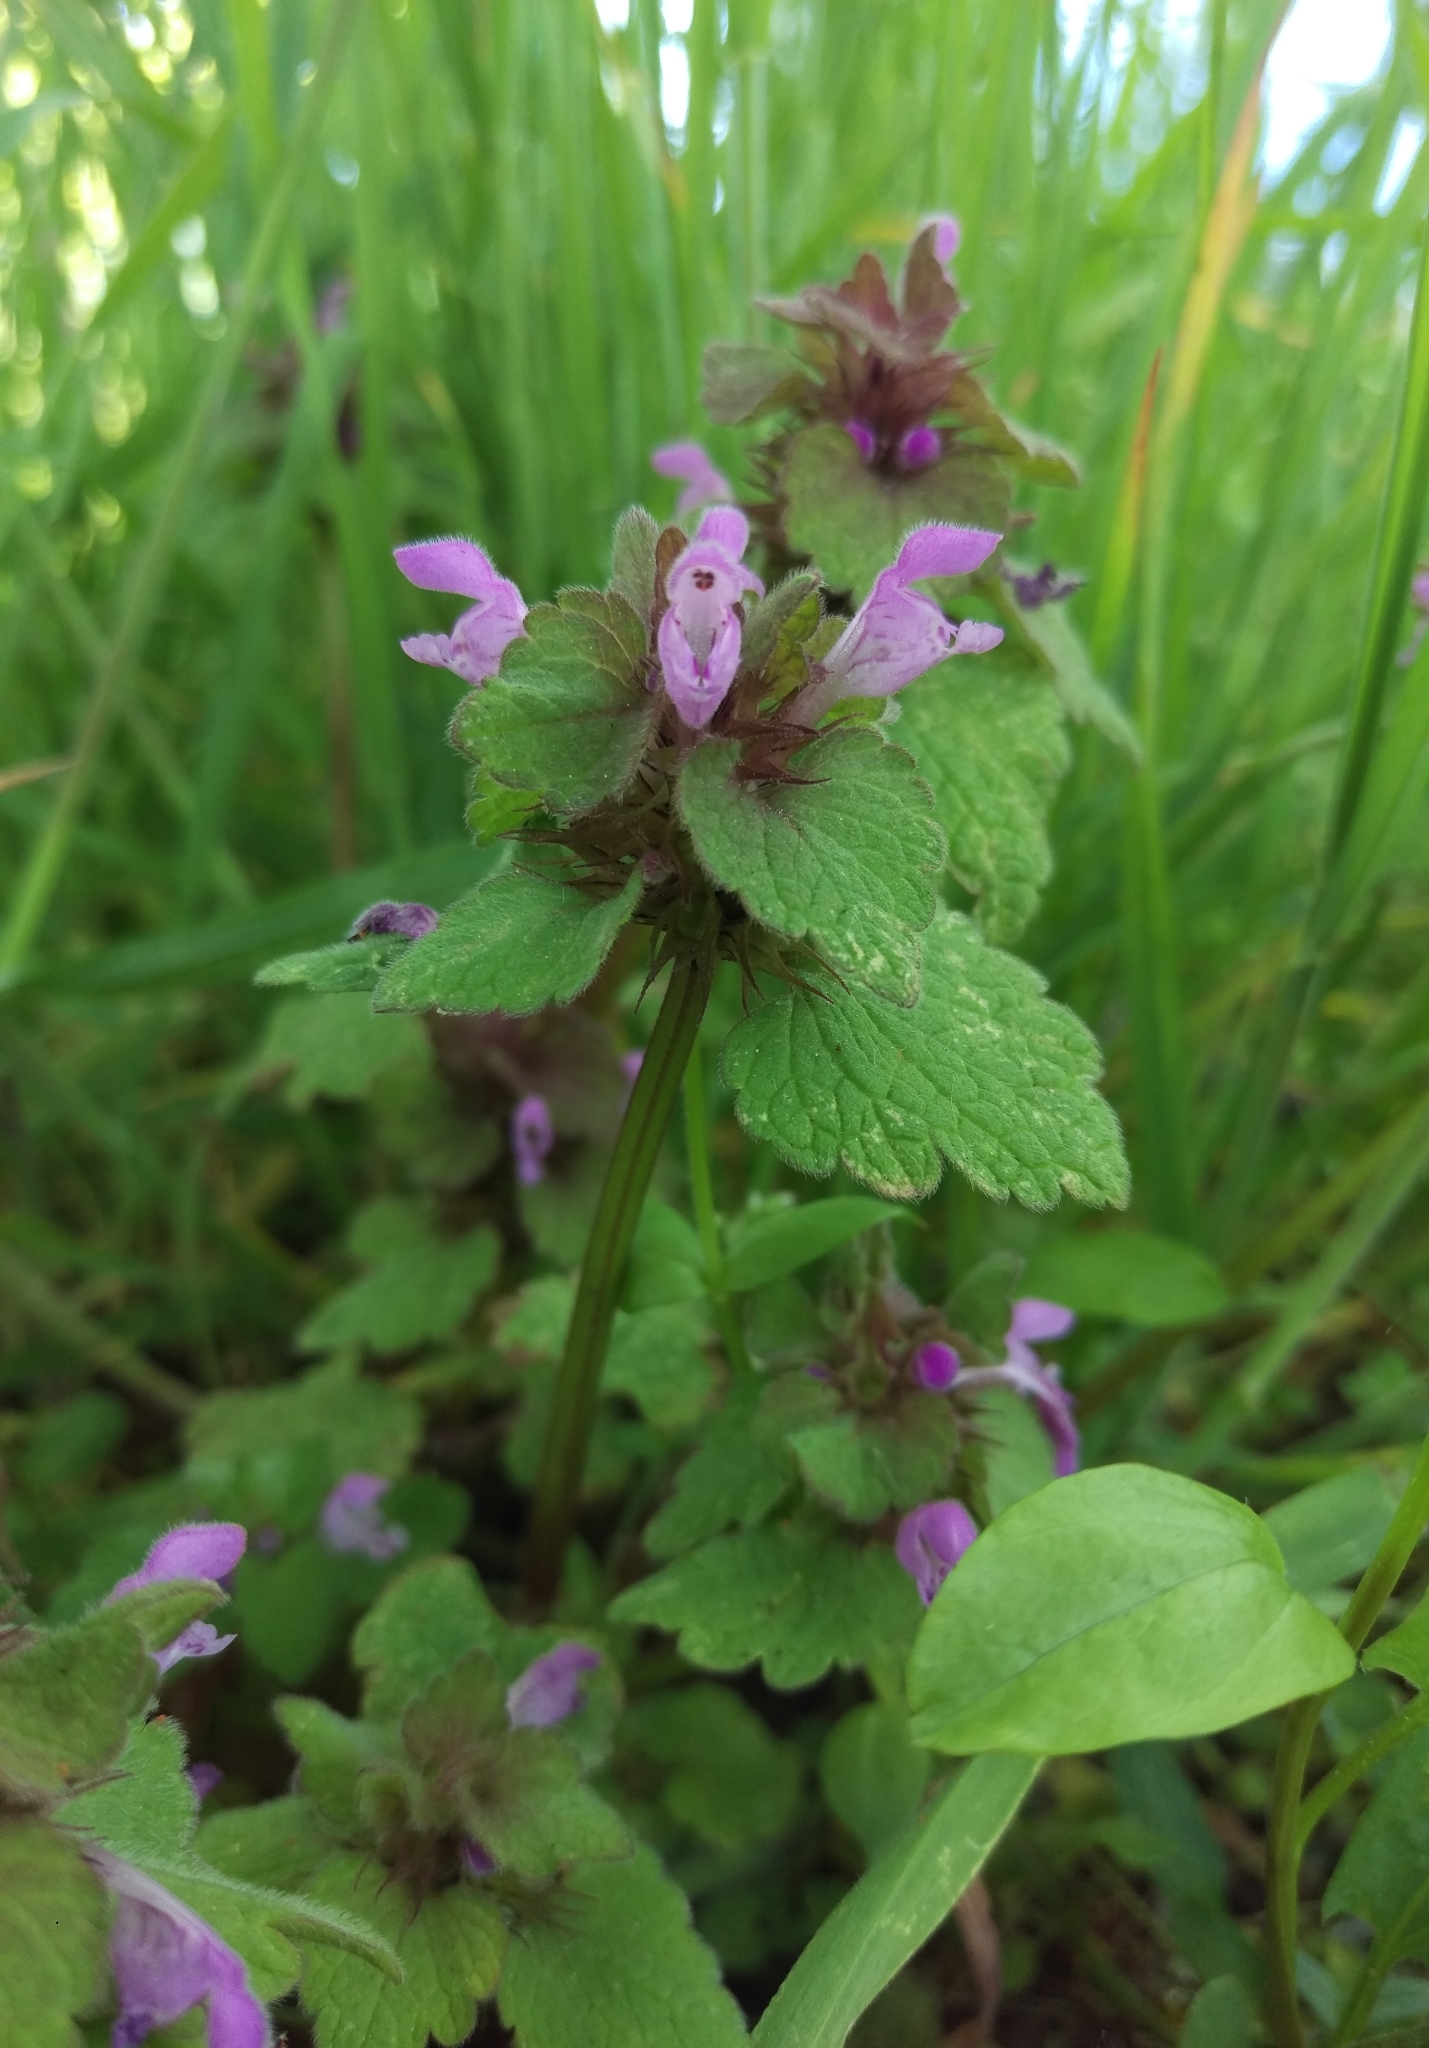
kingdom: Plantae
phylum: Tracheophyta
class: Magnoliopsida
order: Lamiales
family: Lamiaceae
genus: Lamium
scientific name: Lamium purpureum
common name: Red dead-nettle
